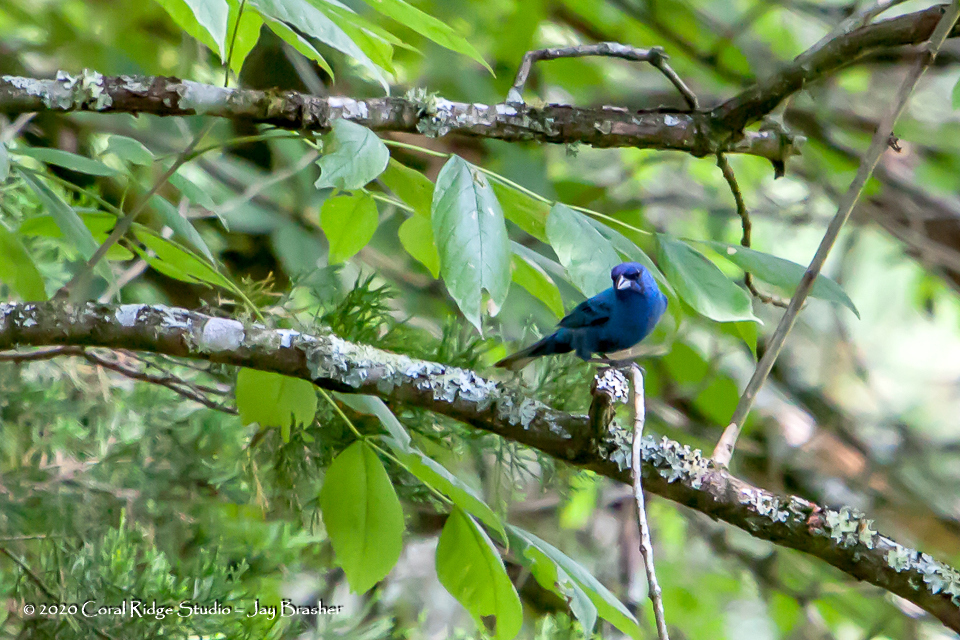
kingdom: Animalia
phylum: Chordata
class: Aves
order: Passeriformes
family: Cardinalidae
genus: Passerina
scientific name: Passerina cyanea
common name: Indigo bunting
